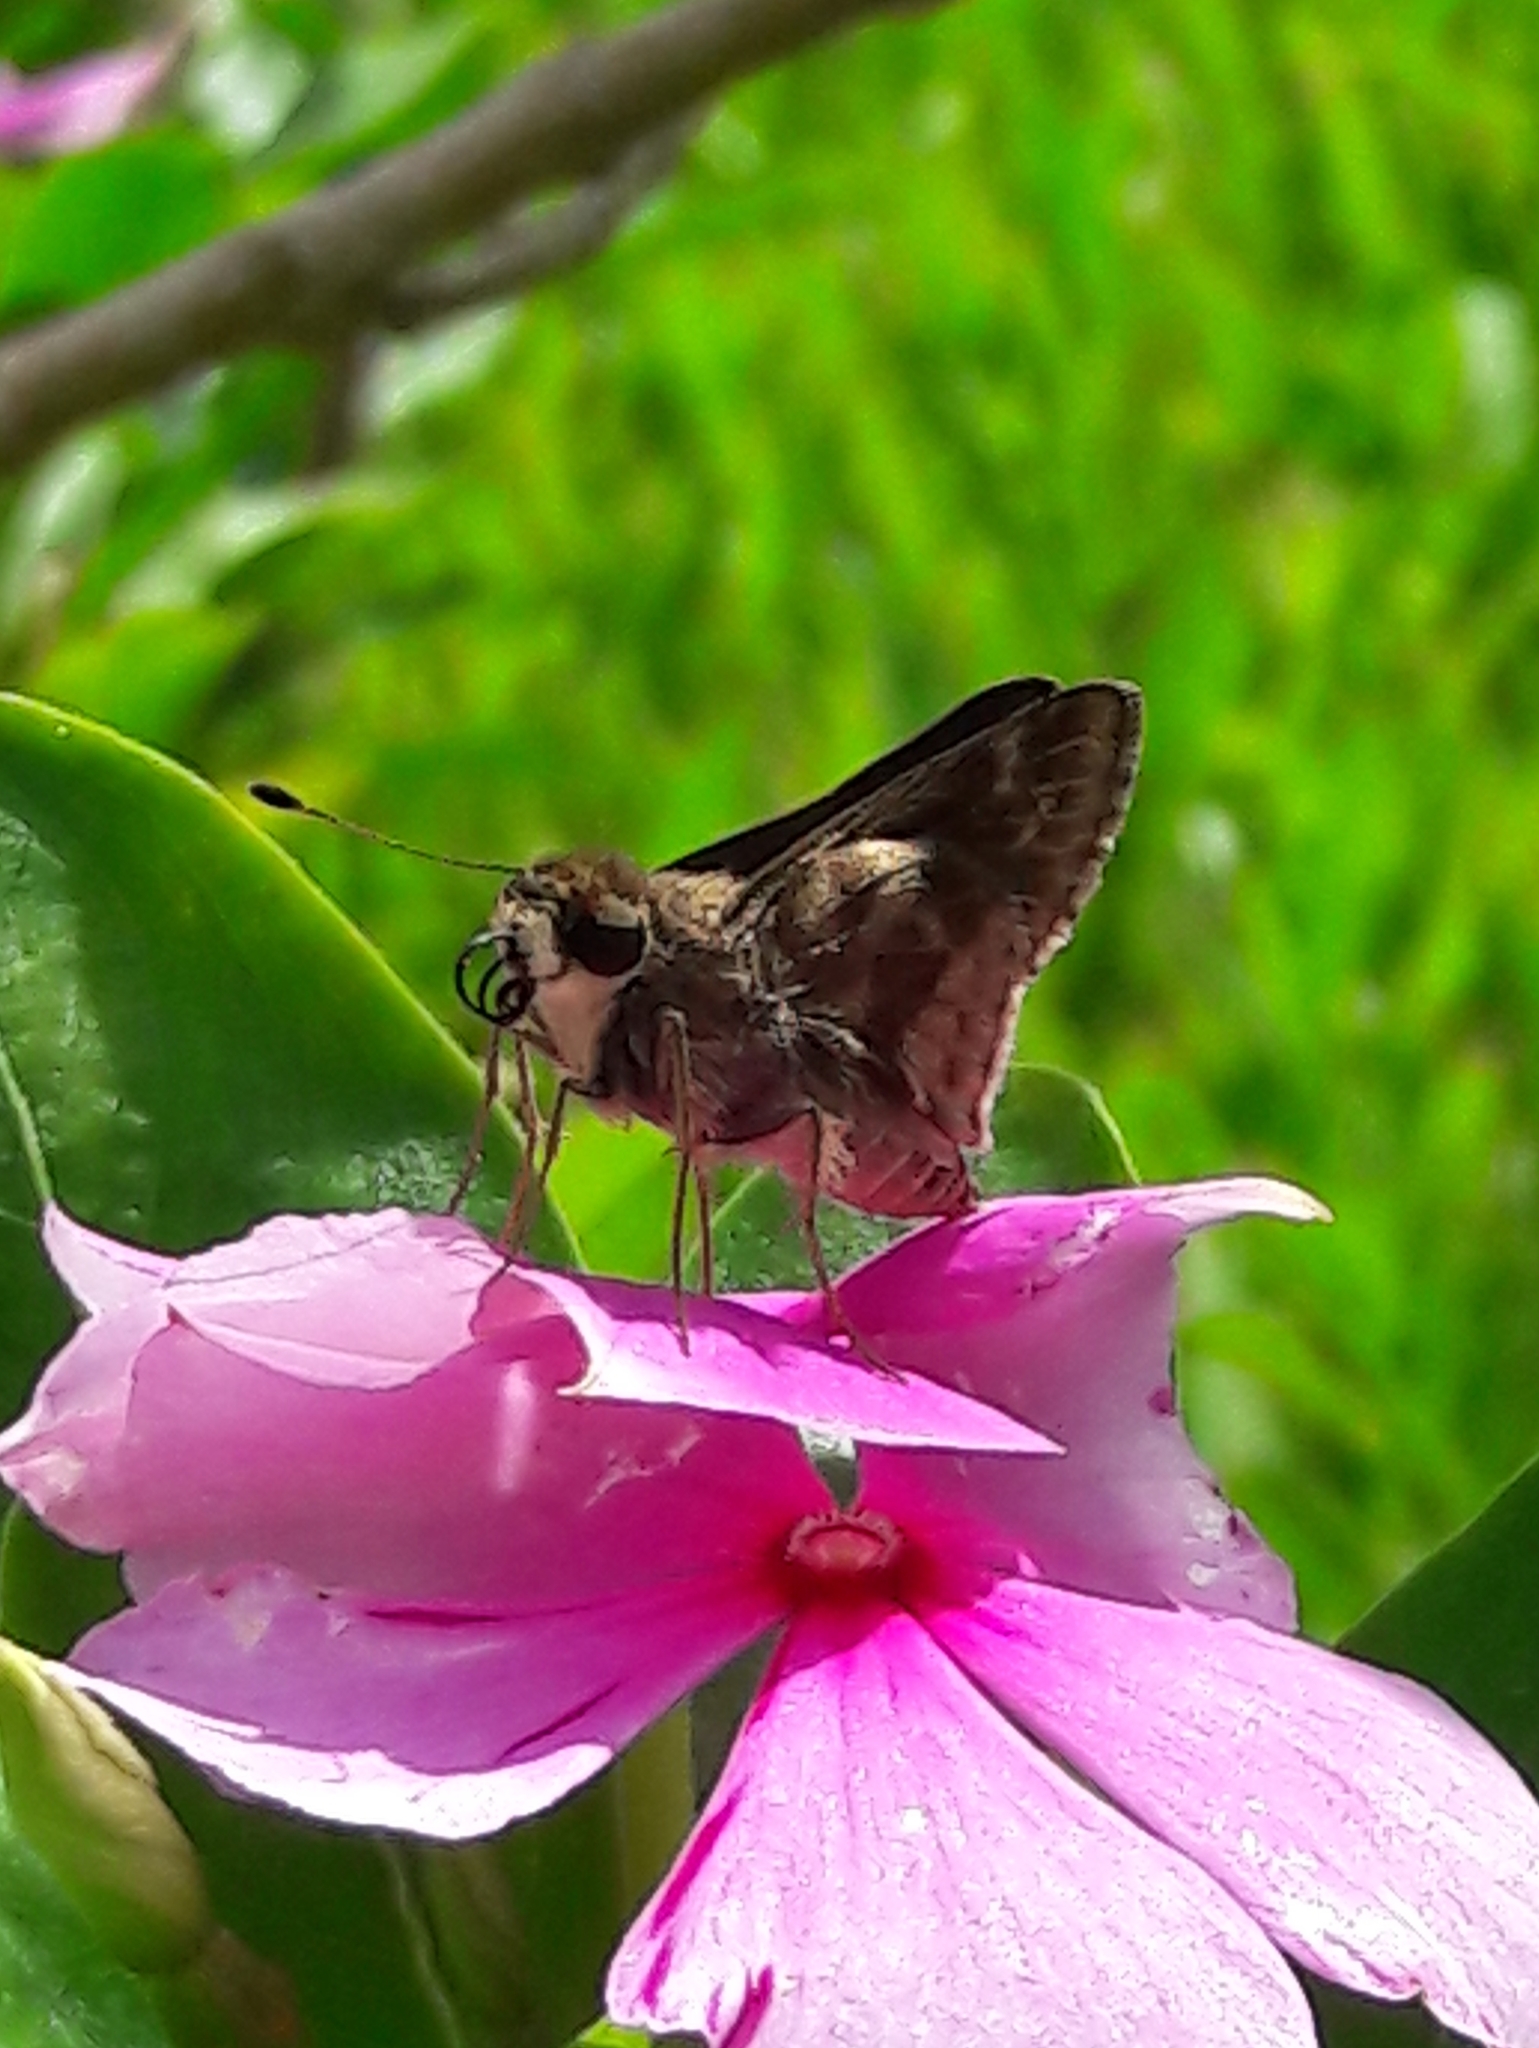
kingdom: Animalia
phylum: Arthropoda
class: Insecta
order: Lepidoptera
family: Hesperiidae
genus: Pompeius
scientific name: Pompeius pompeius
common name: Pompeius skipper
